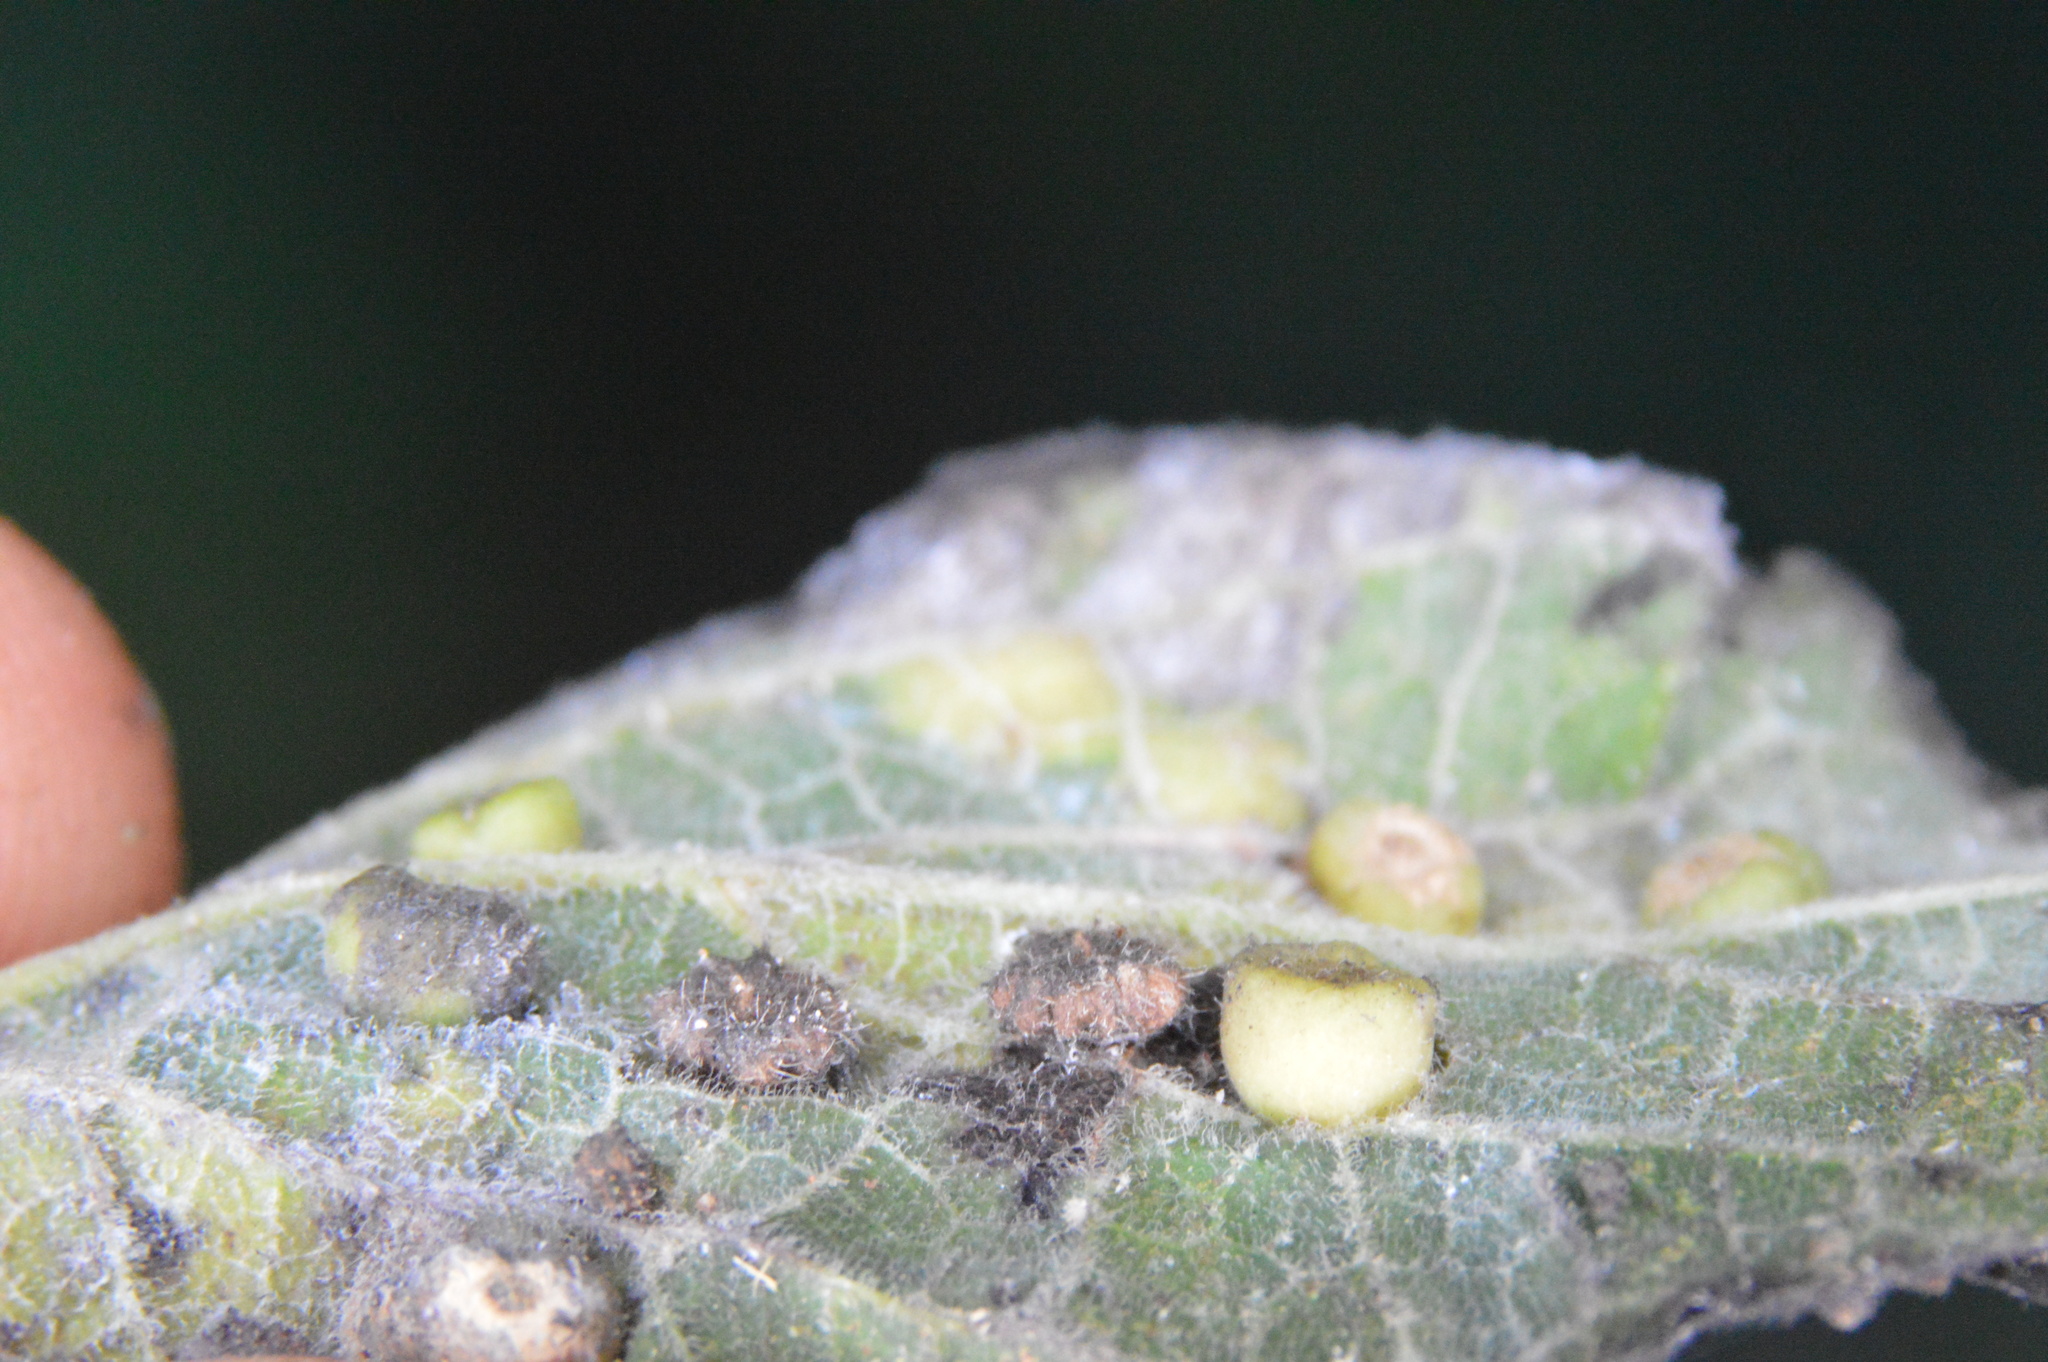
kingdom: Animalia
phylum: Arthropoda
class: Insecta
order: Diptera
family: Cecidomyiidae
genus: Celticecis
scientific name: Celticecis capsularis
